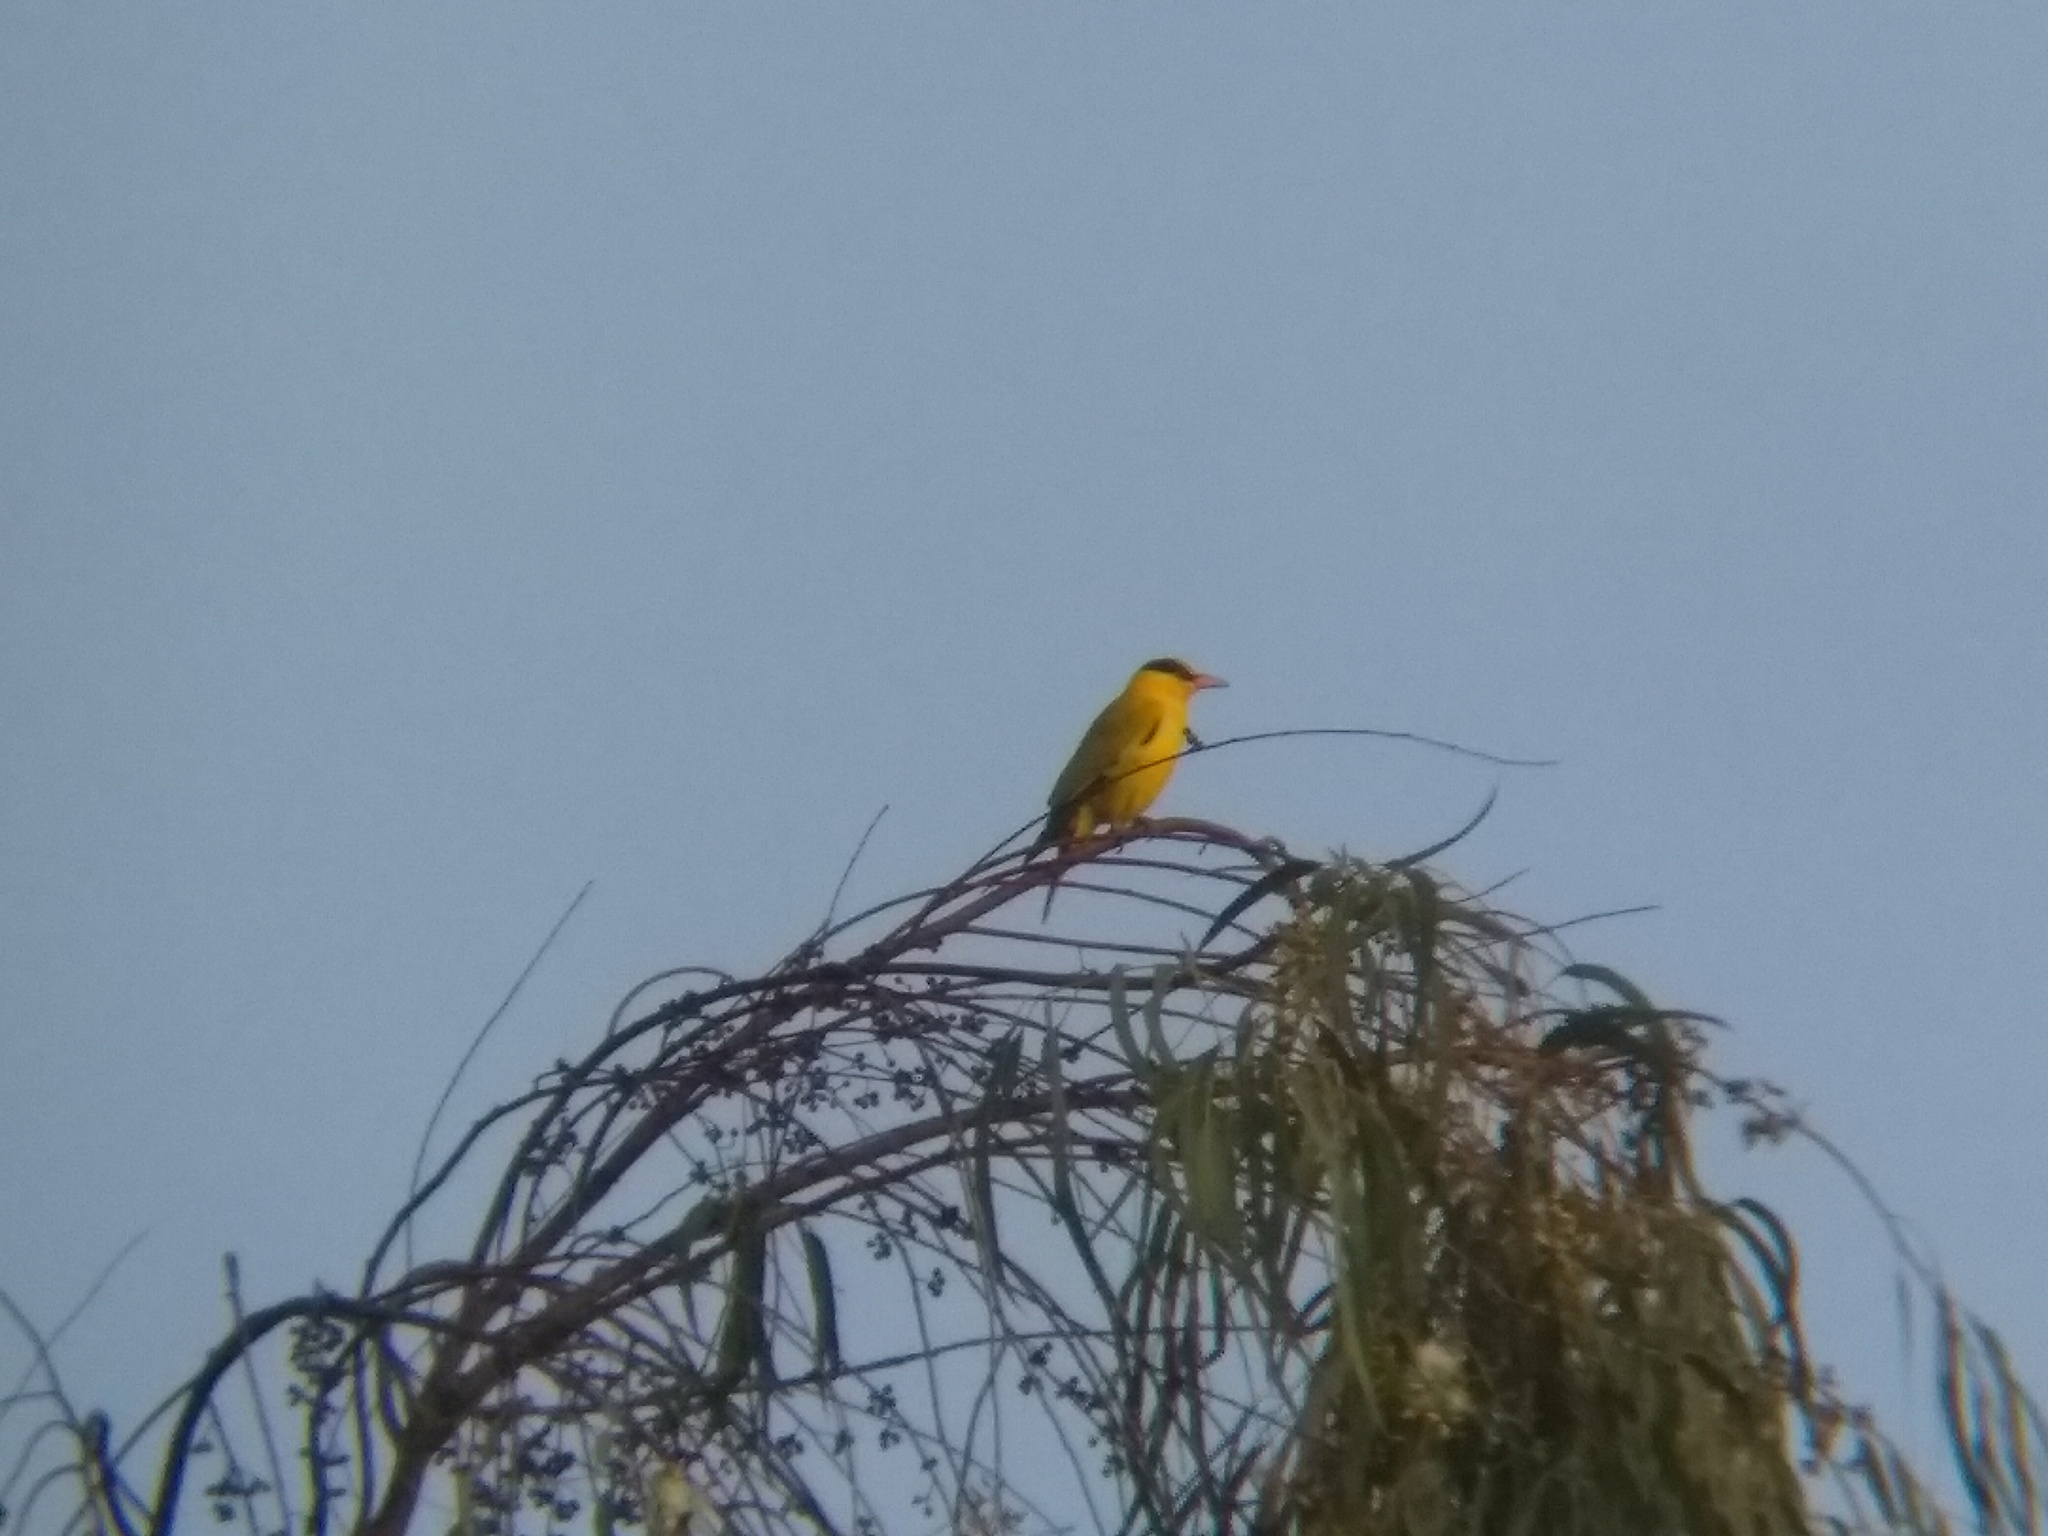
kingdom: Animalia
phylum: Chordata
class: Aves
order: Passeriformes
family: Oriolidae
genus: Oriolus
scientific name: Oriolus chinensis
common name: Black-naped oriole
